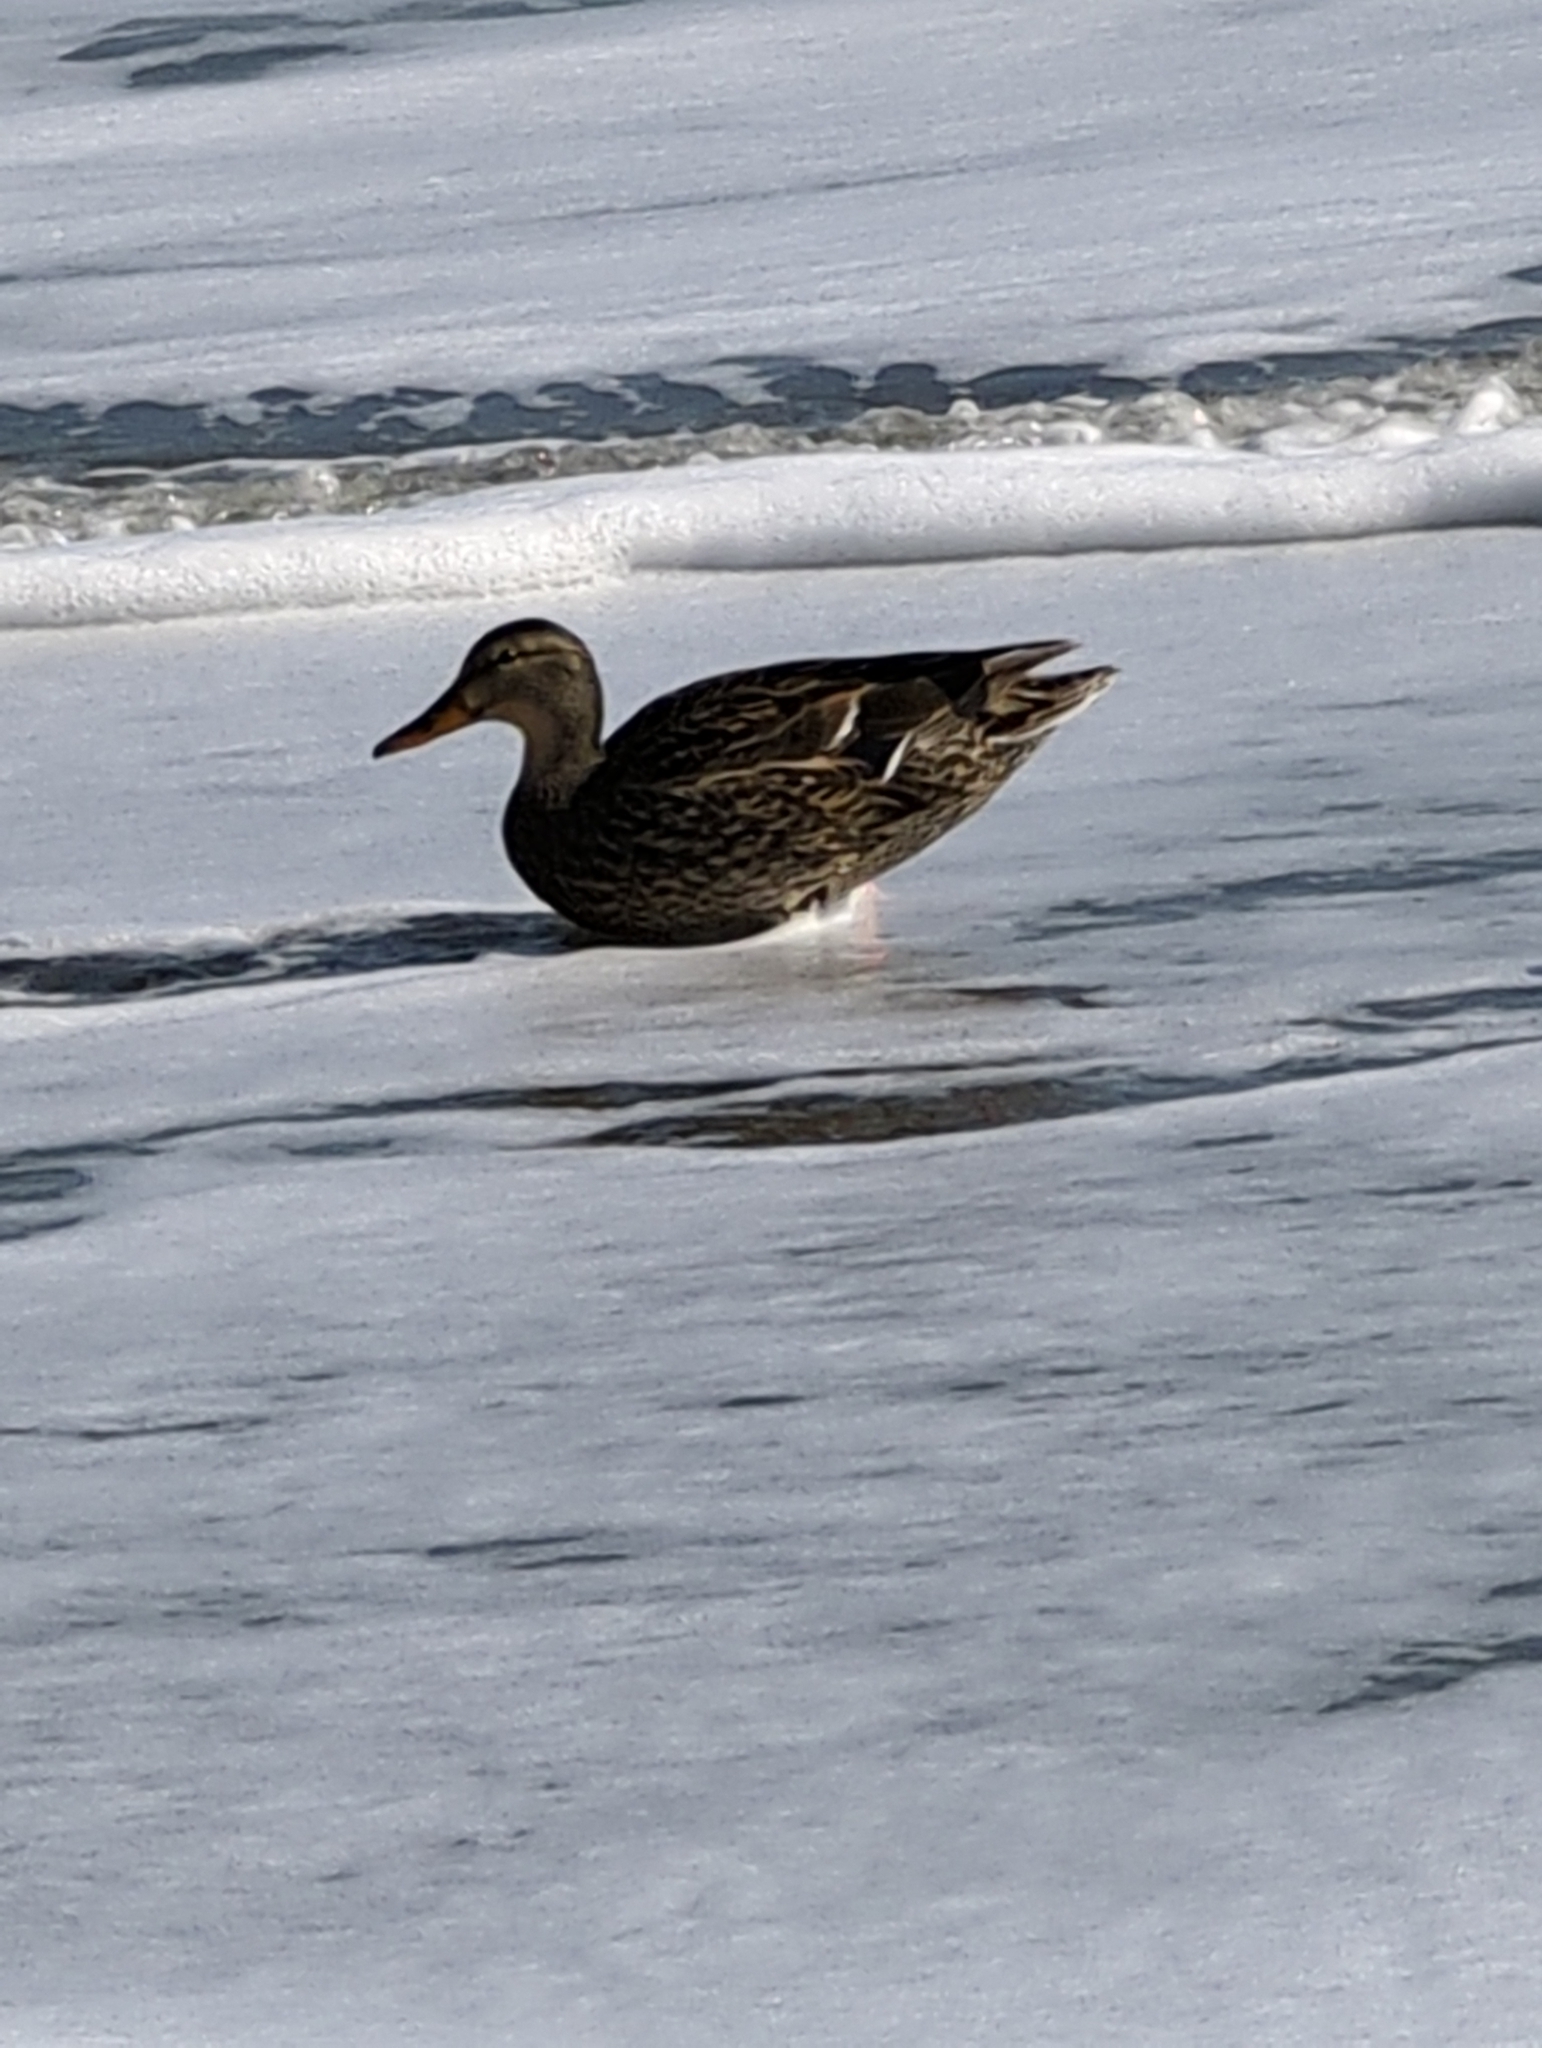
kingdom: Animalia
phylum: Chordata
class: Aves
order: Anseriformes
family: Anatidae
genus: Anas
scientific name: Anas platyrhynchos
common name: Mallard
